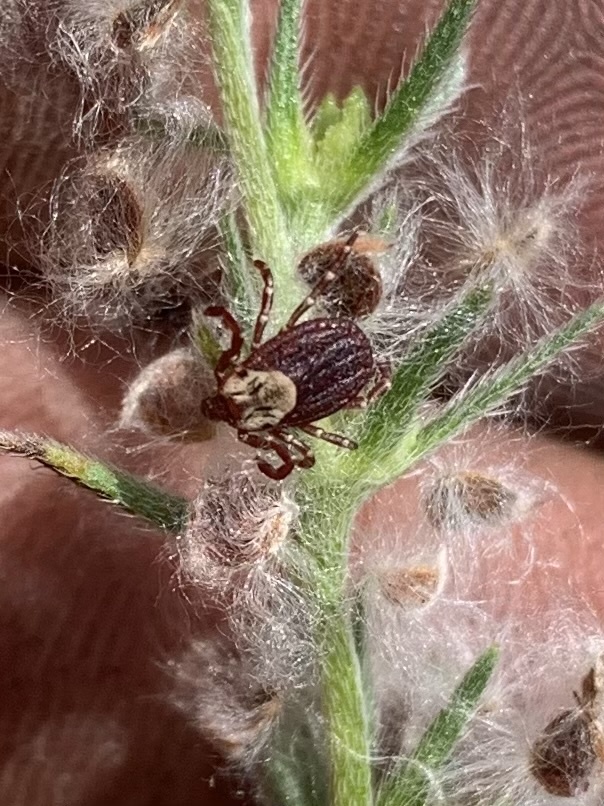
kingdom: Animalia
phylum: Arthropoda
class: Arachnida
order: Ixodida
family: Ixodidae
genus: Dermacentor
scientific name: Dermacentor variabilis
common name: American dog tick
